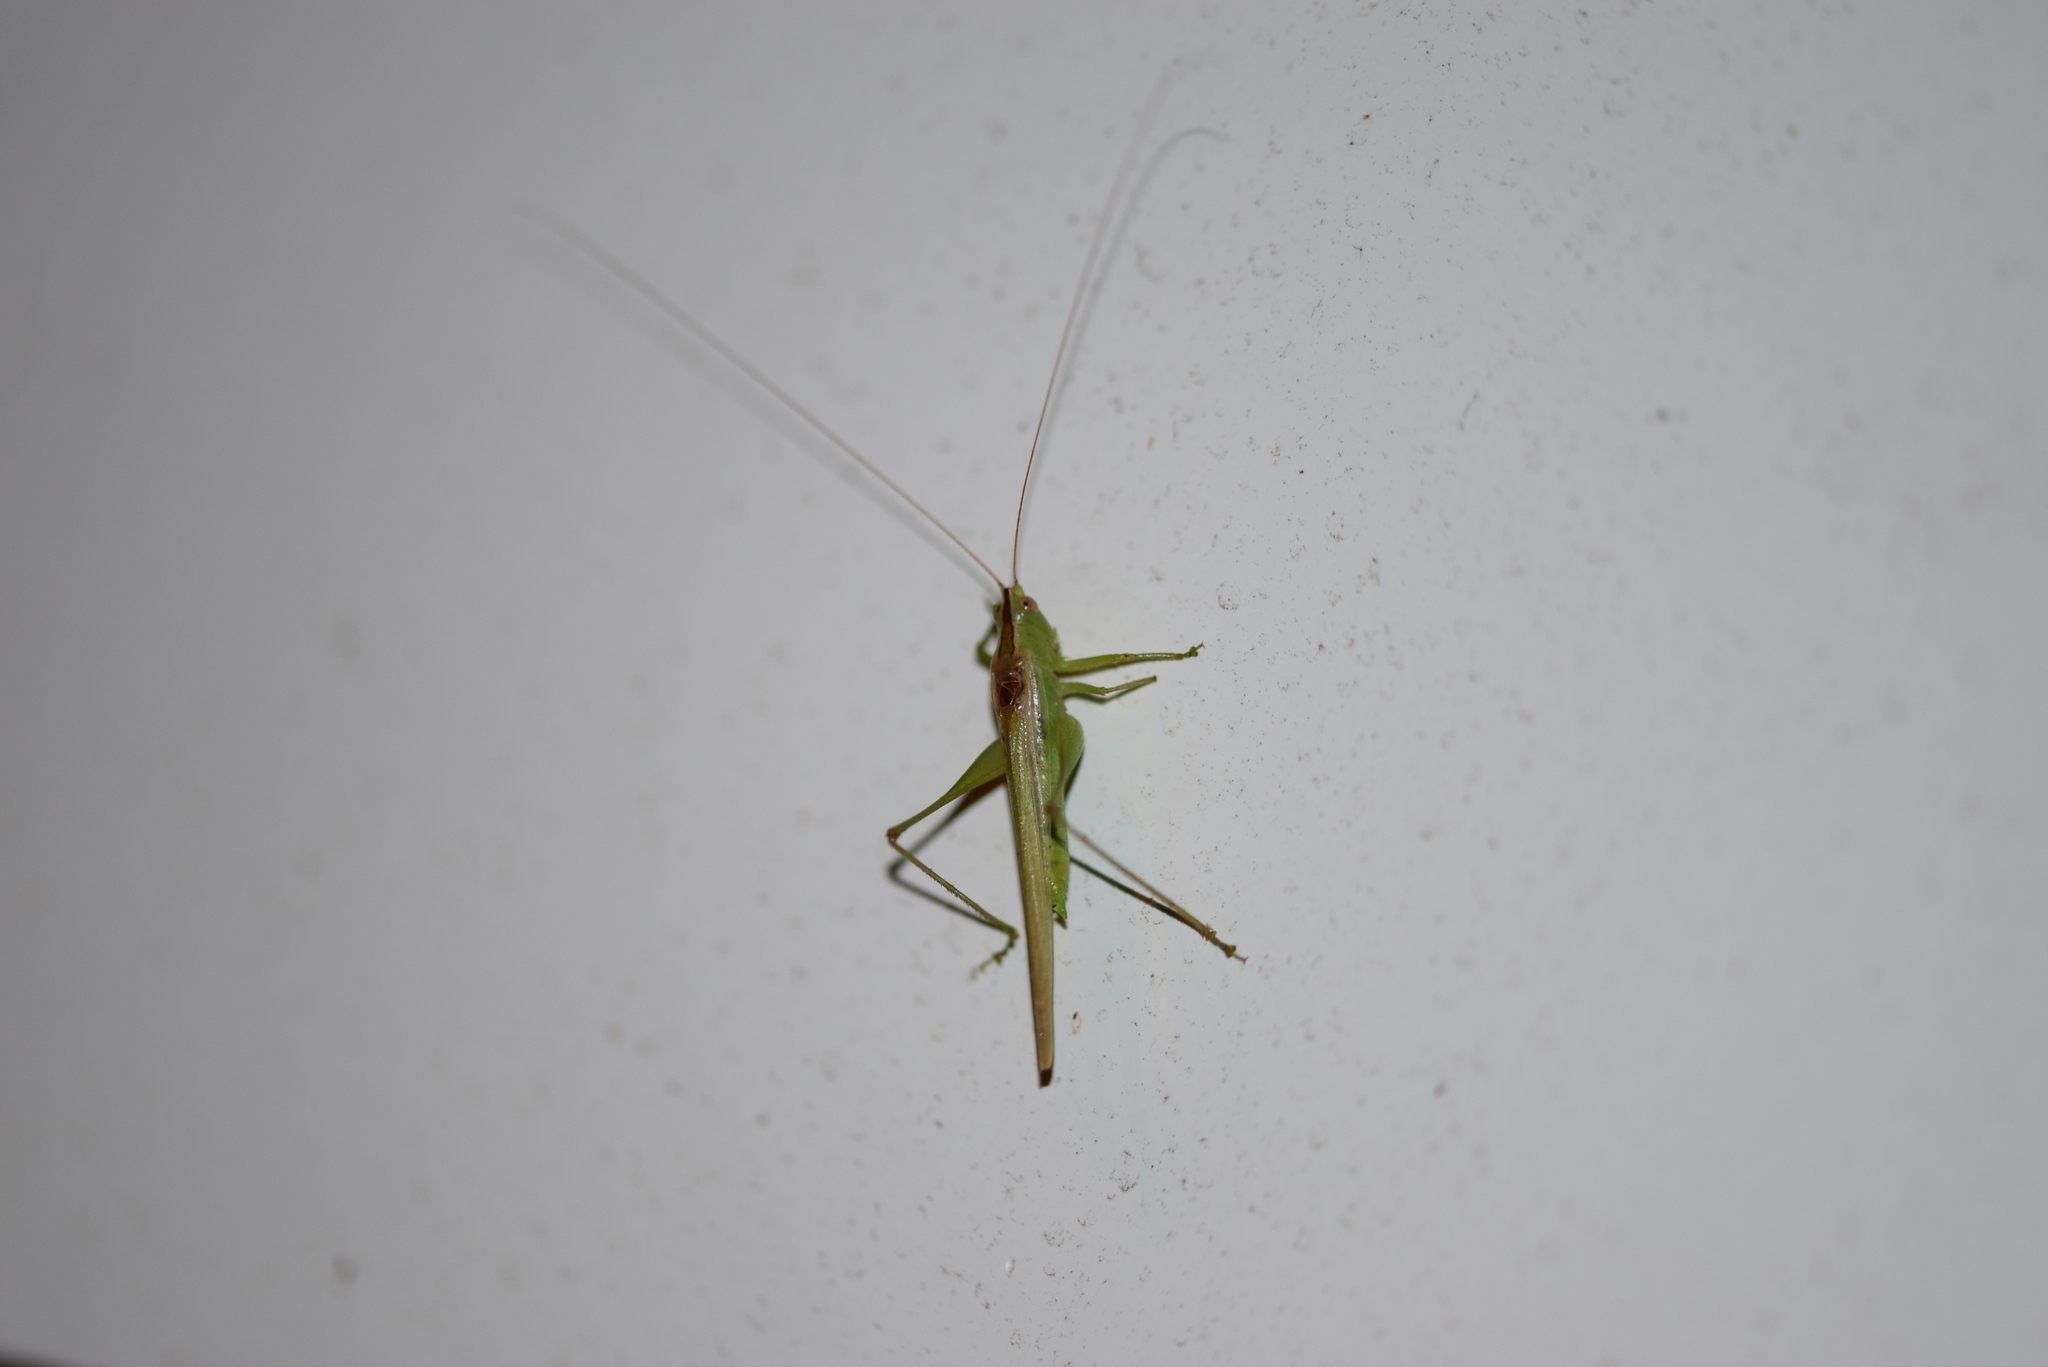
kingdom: Animalia
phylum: Arthropoda
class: Insecta
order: Orthoptera
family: Tettigoniidae
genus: Conocephalus
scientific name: Conocephalus fasciatus
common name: Slender meadow katydid
